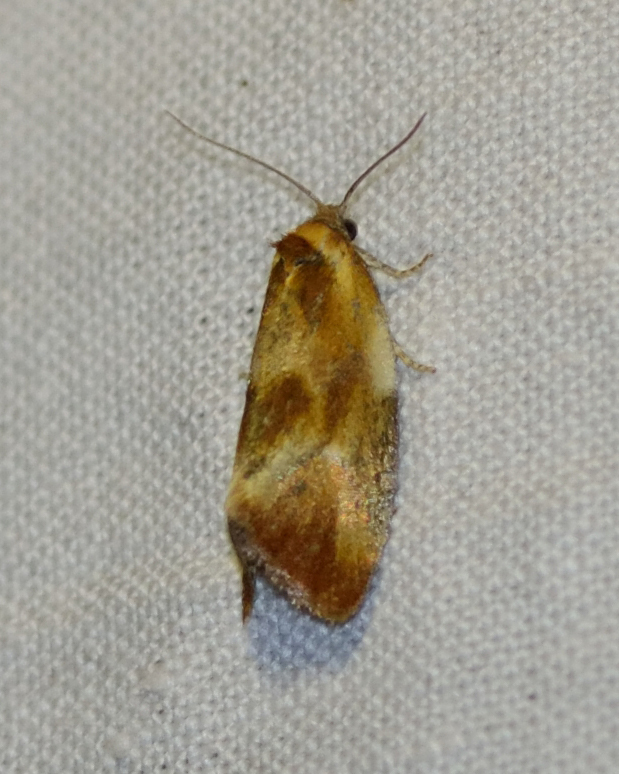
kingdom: Animalia
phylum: Arthropoda
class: Insecta
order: Lepidoptera
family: Tortricidae
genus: Eulia
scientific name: Eulia ministrana
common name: Brassy twist
